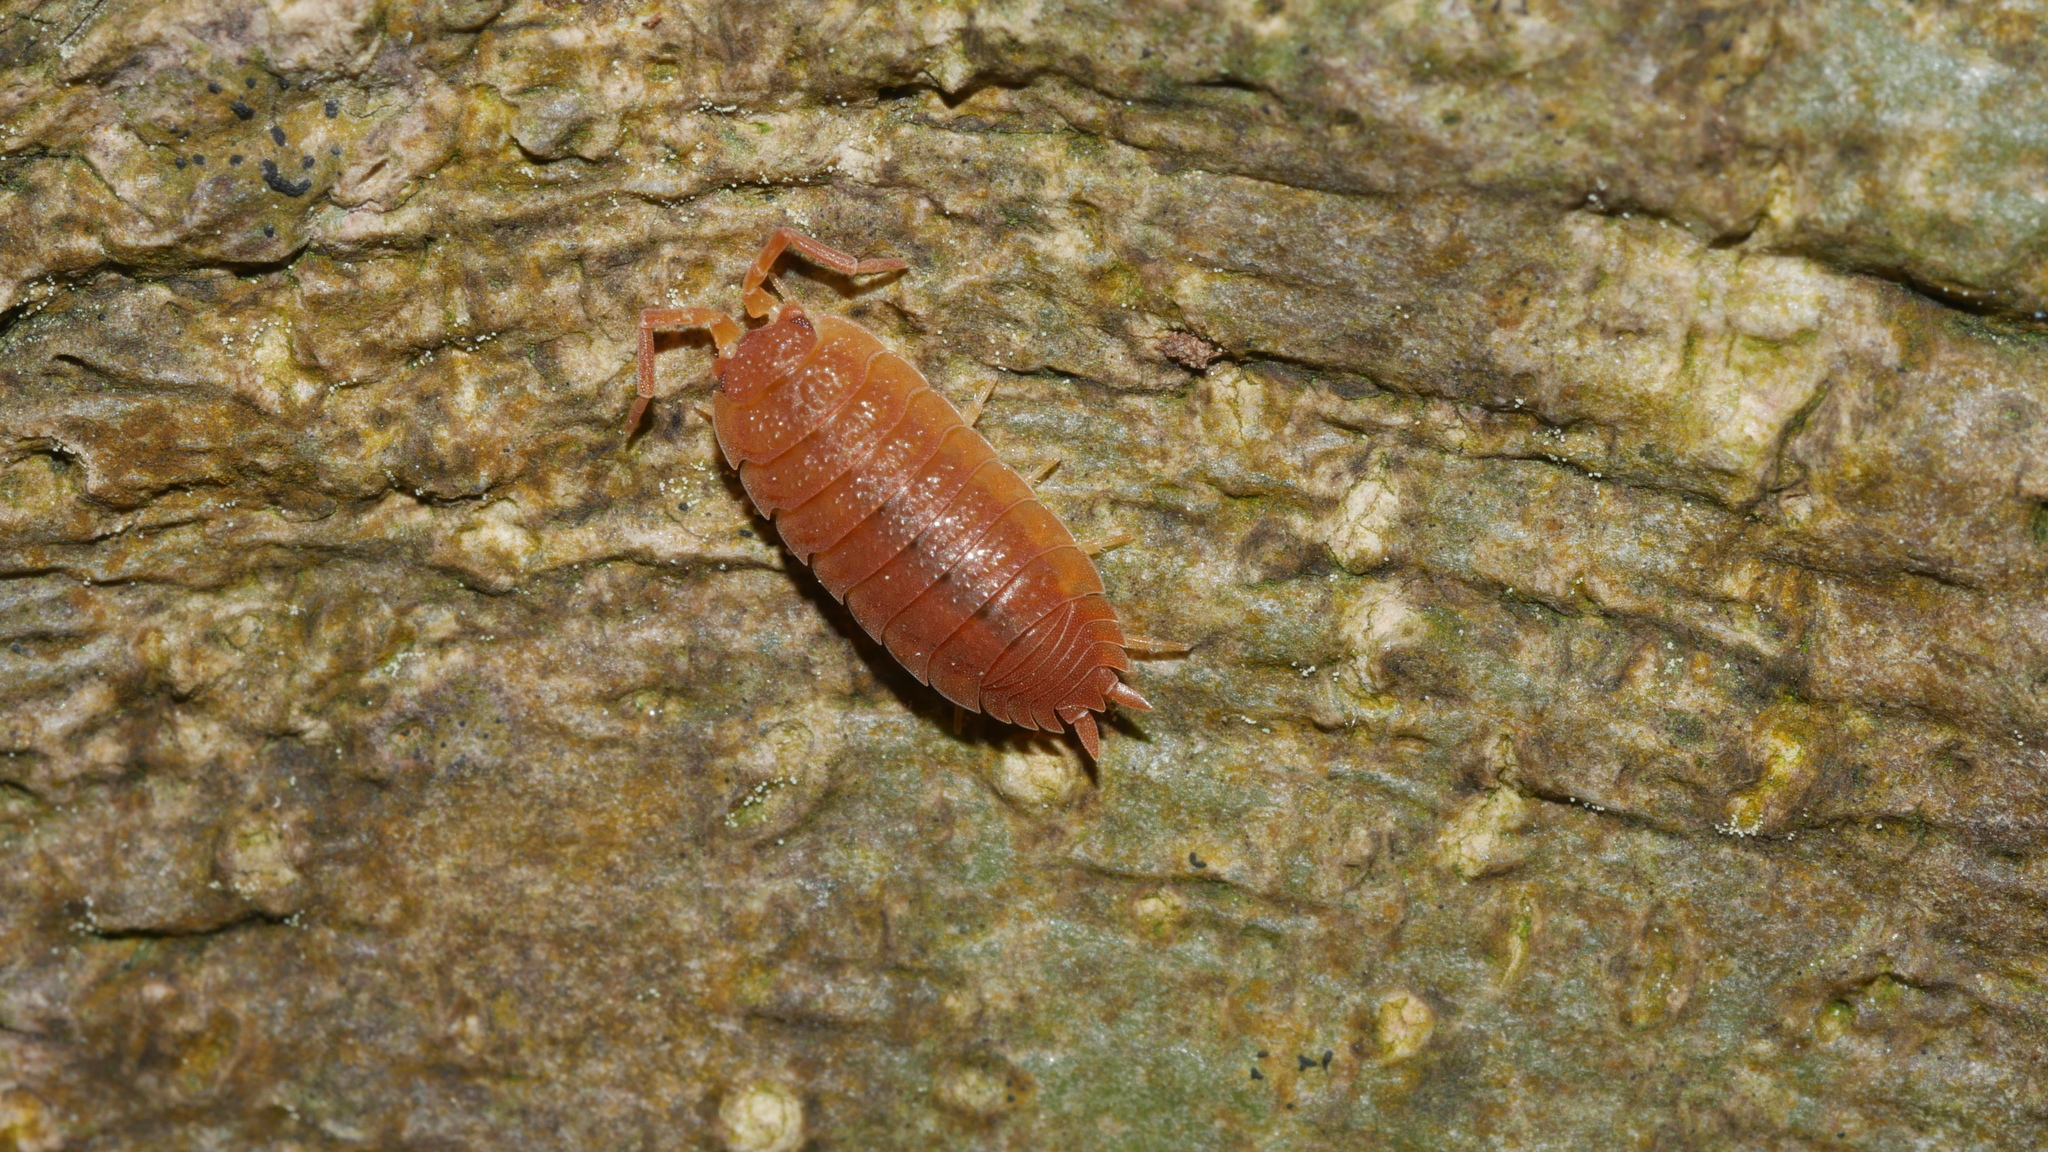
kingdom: Animalia
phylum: Arthropoda
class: Malacostraca
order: Isopoda
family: Porcellionidae
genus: Porcellio
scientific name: Porcellio scaber
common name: Common rough woodlouse
